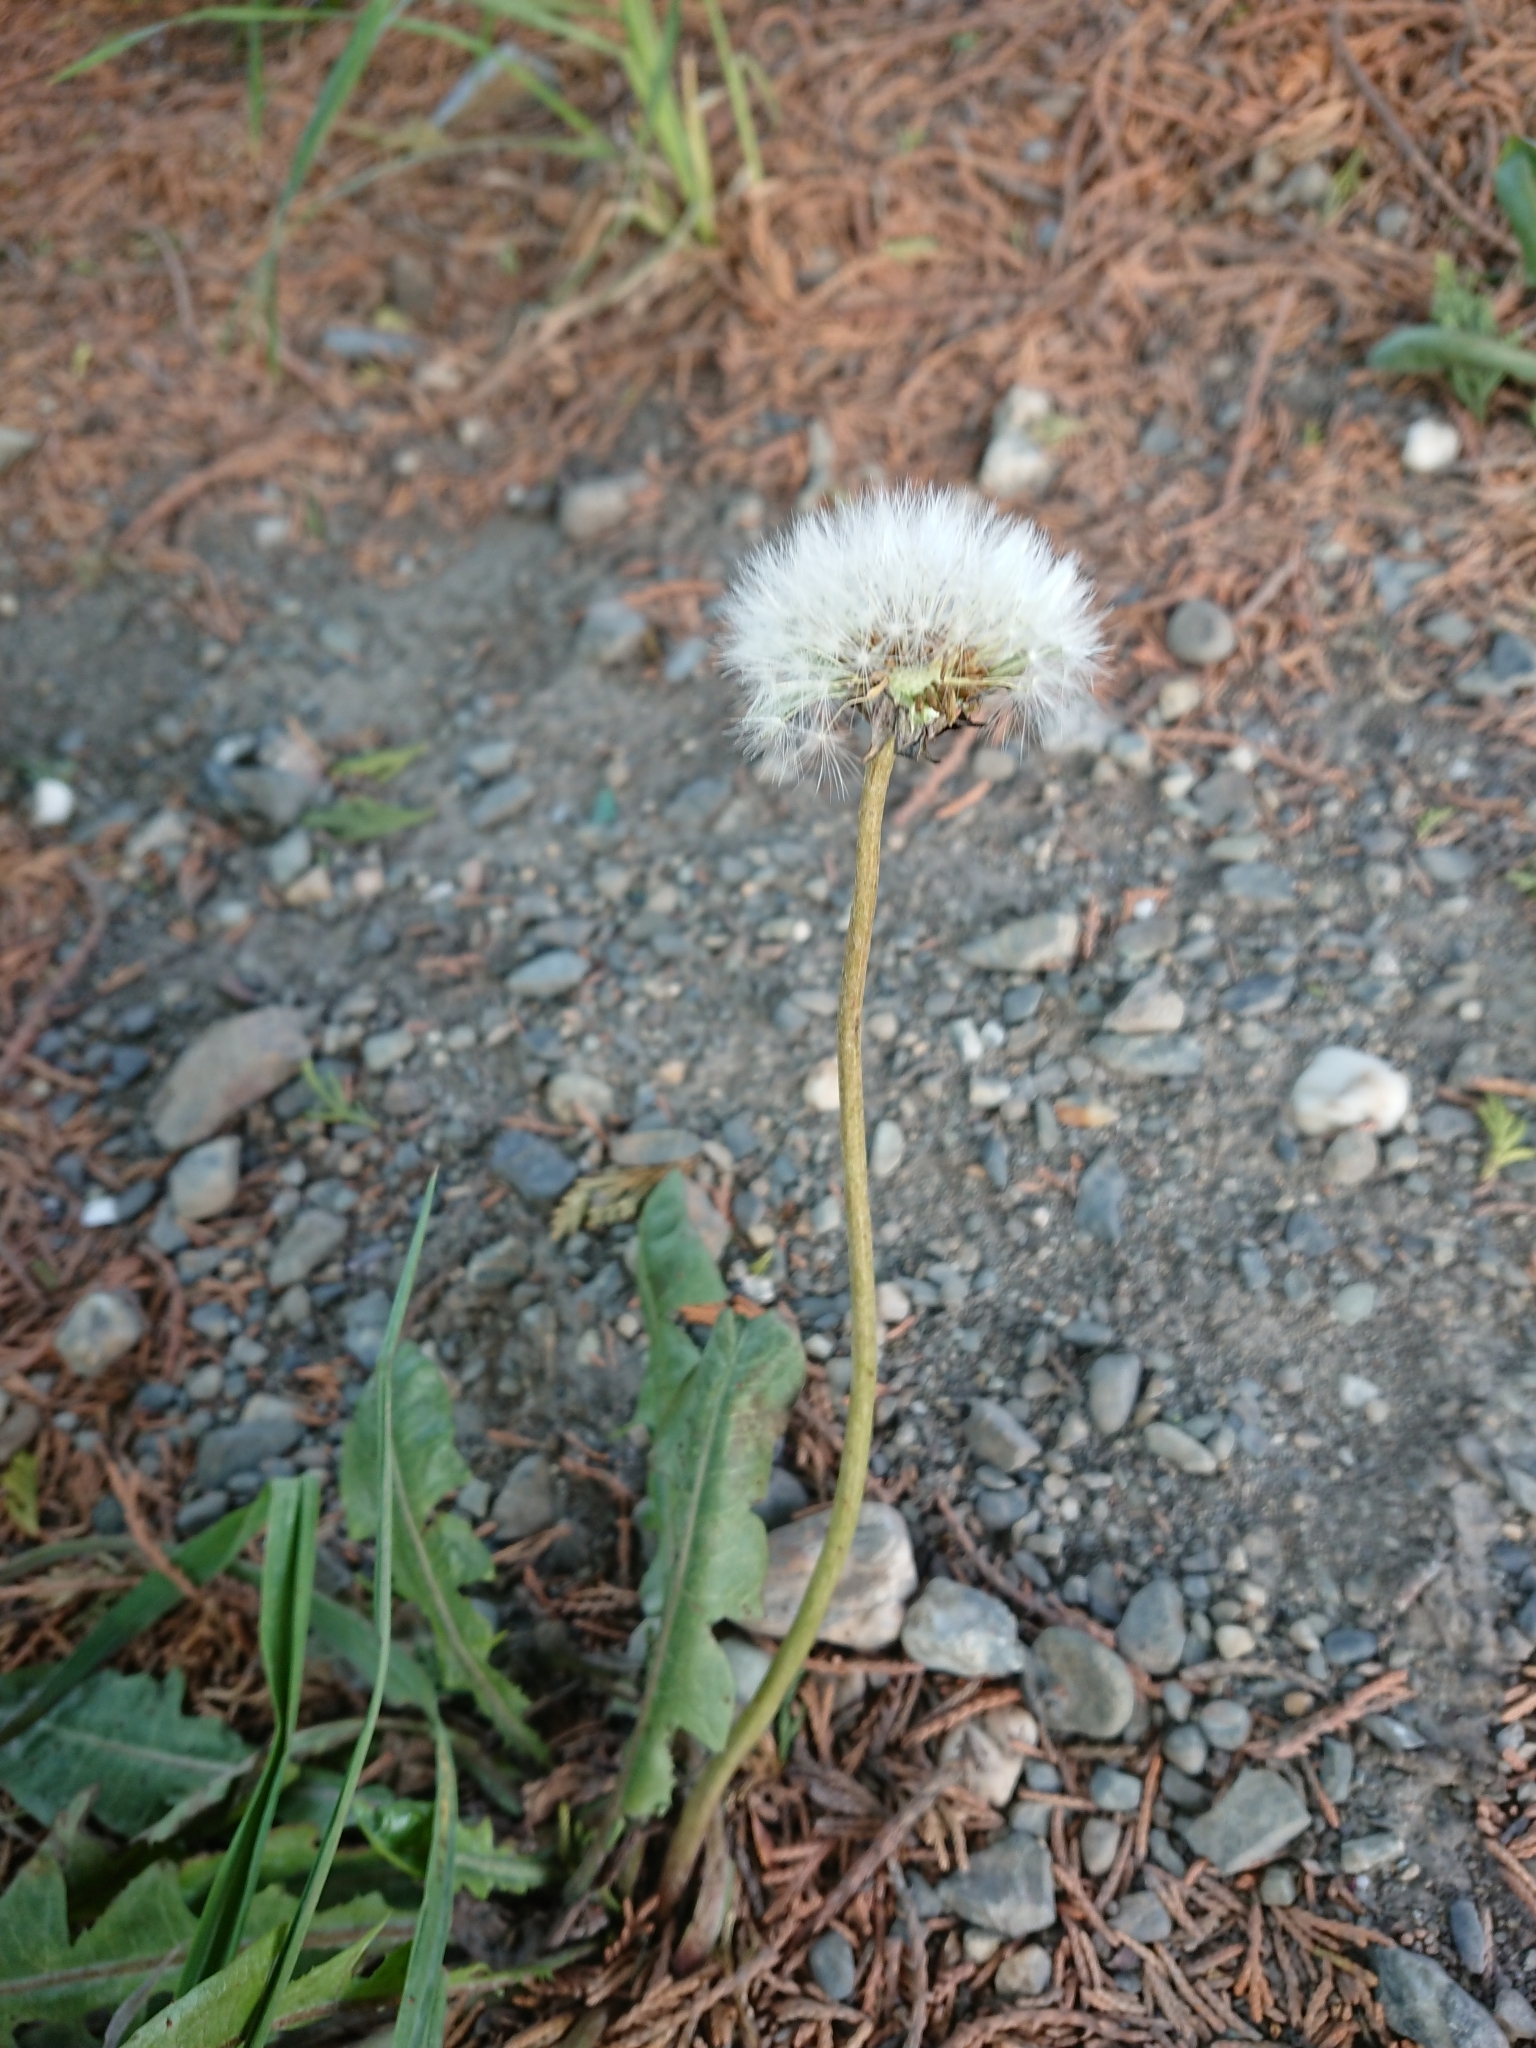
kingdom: Plantae
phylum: Tracheophyta
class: Magnoliopsida
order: Asterales
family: Asteraceae
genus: Taraxacum
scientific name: Taraxacum officinale
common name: Common dandelion
